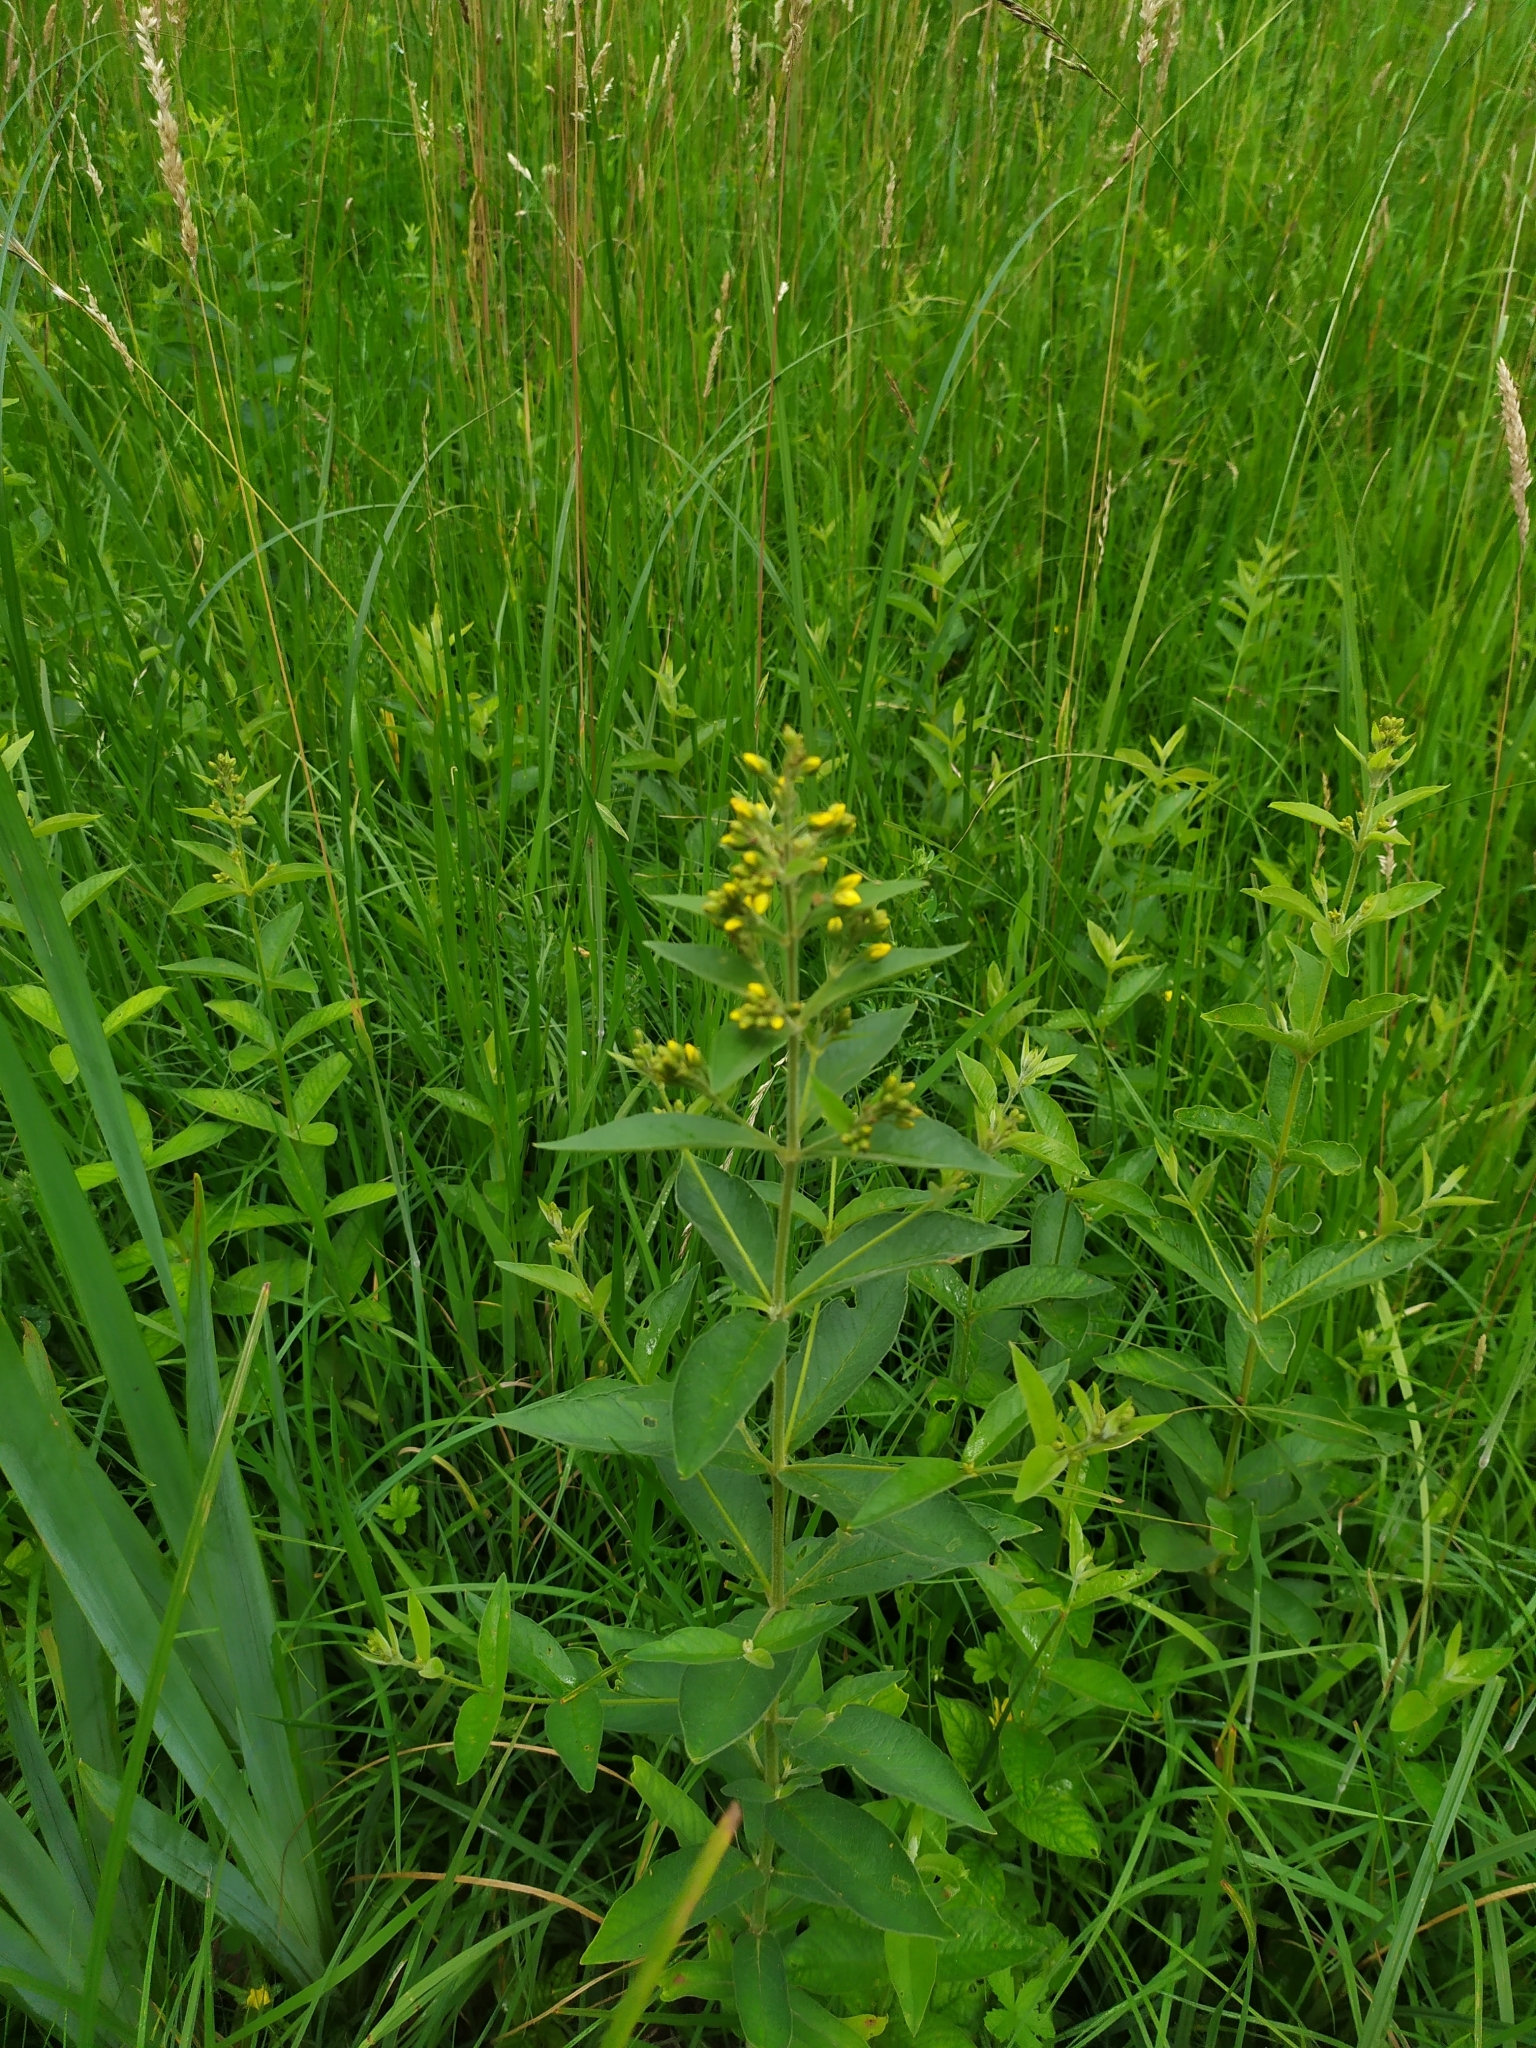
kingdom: Plantae
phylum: Tracheophyta
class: Magnoliopsida
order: Ericales
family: Primulaceae
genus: Lysimachia
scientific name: Lysimachia vulgaris
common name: Yellow loosestrife
